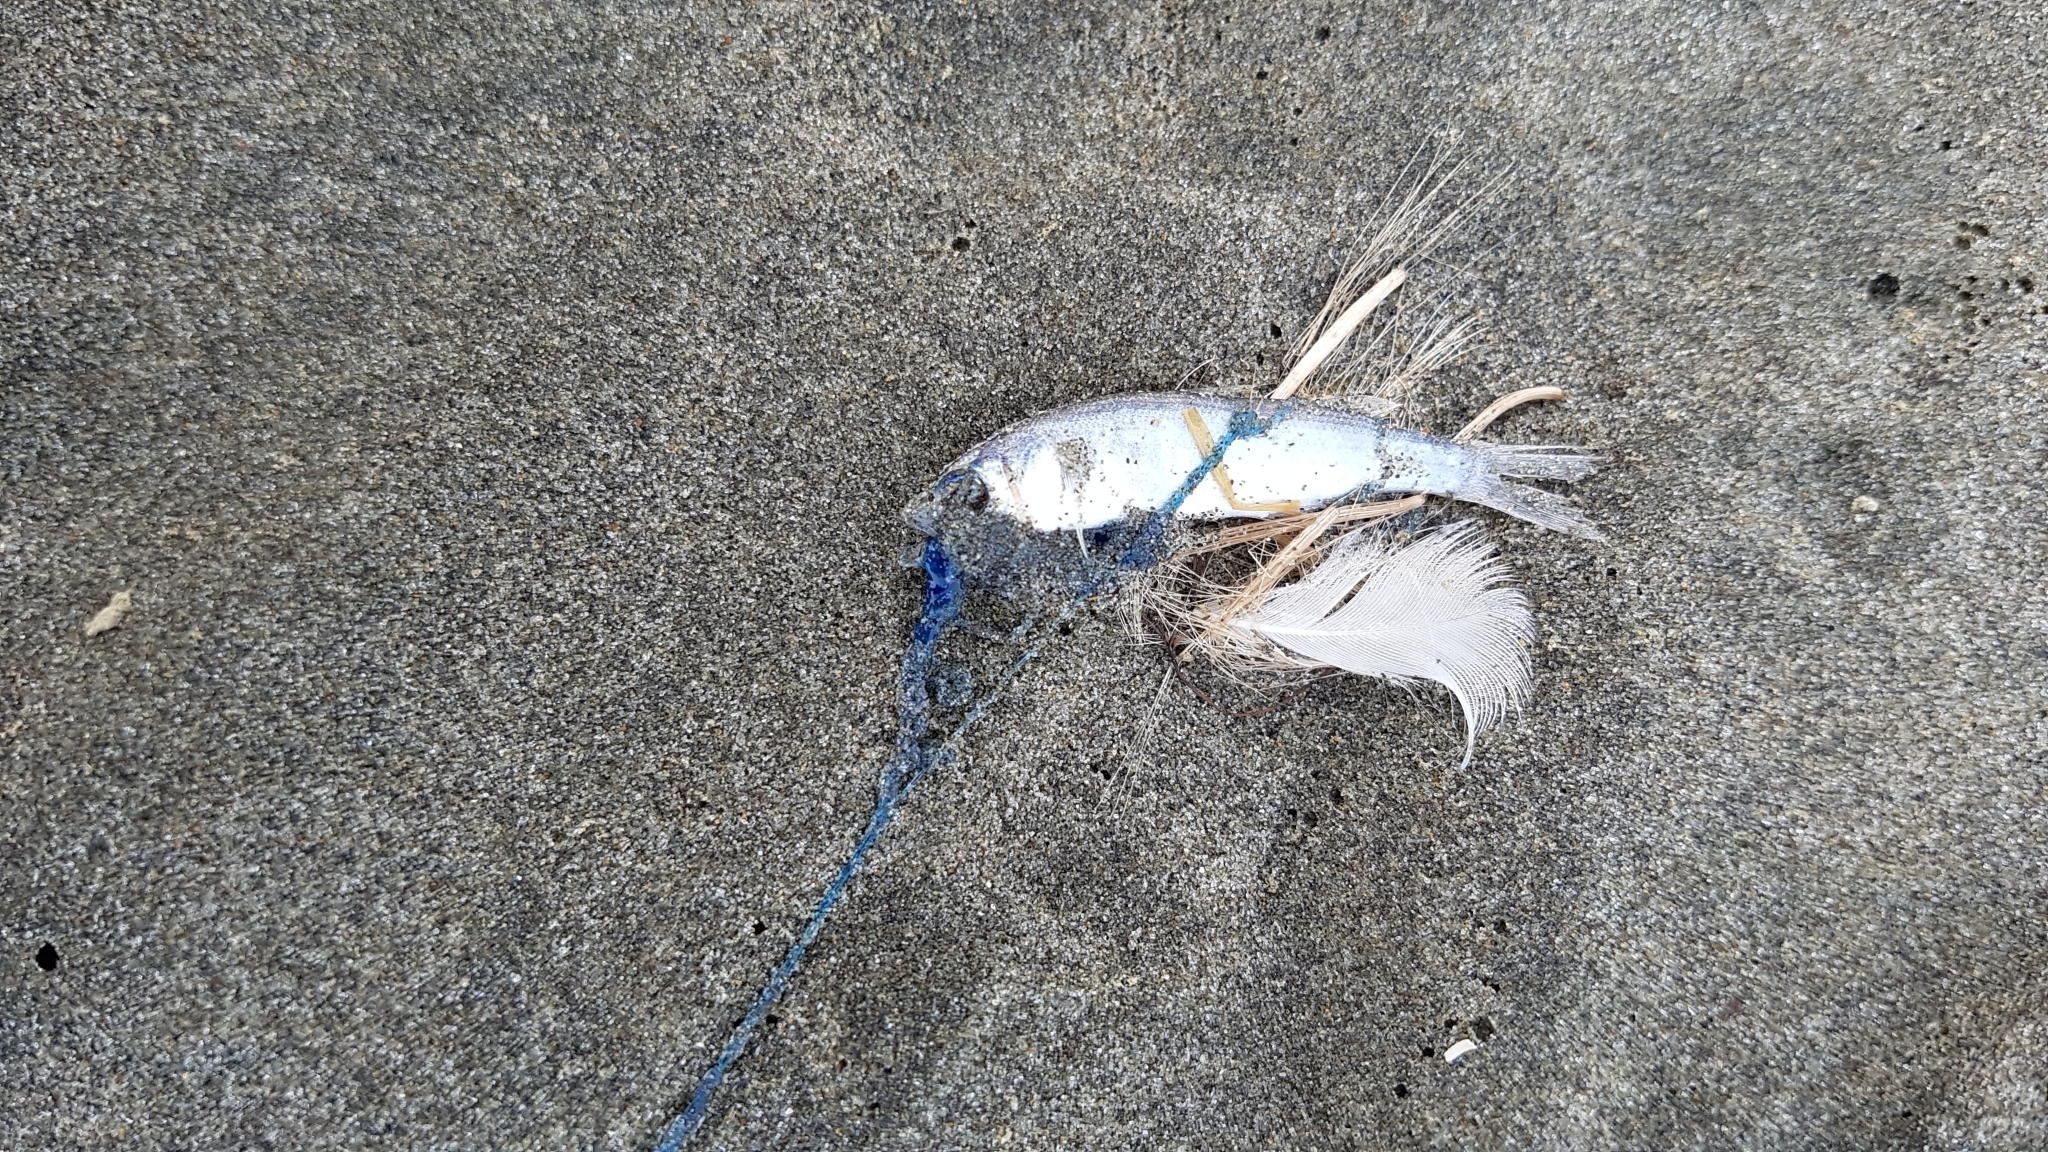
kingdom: Animalia
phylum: Chordata
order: Mugiliformes
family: Mugilidae
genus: Aldrichetta
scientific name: Aldrichetta forsteri
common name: Yellow-eye mullet
